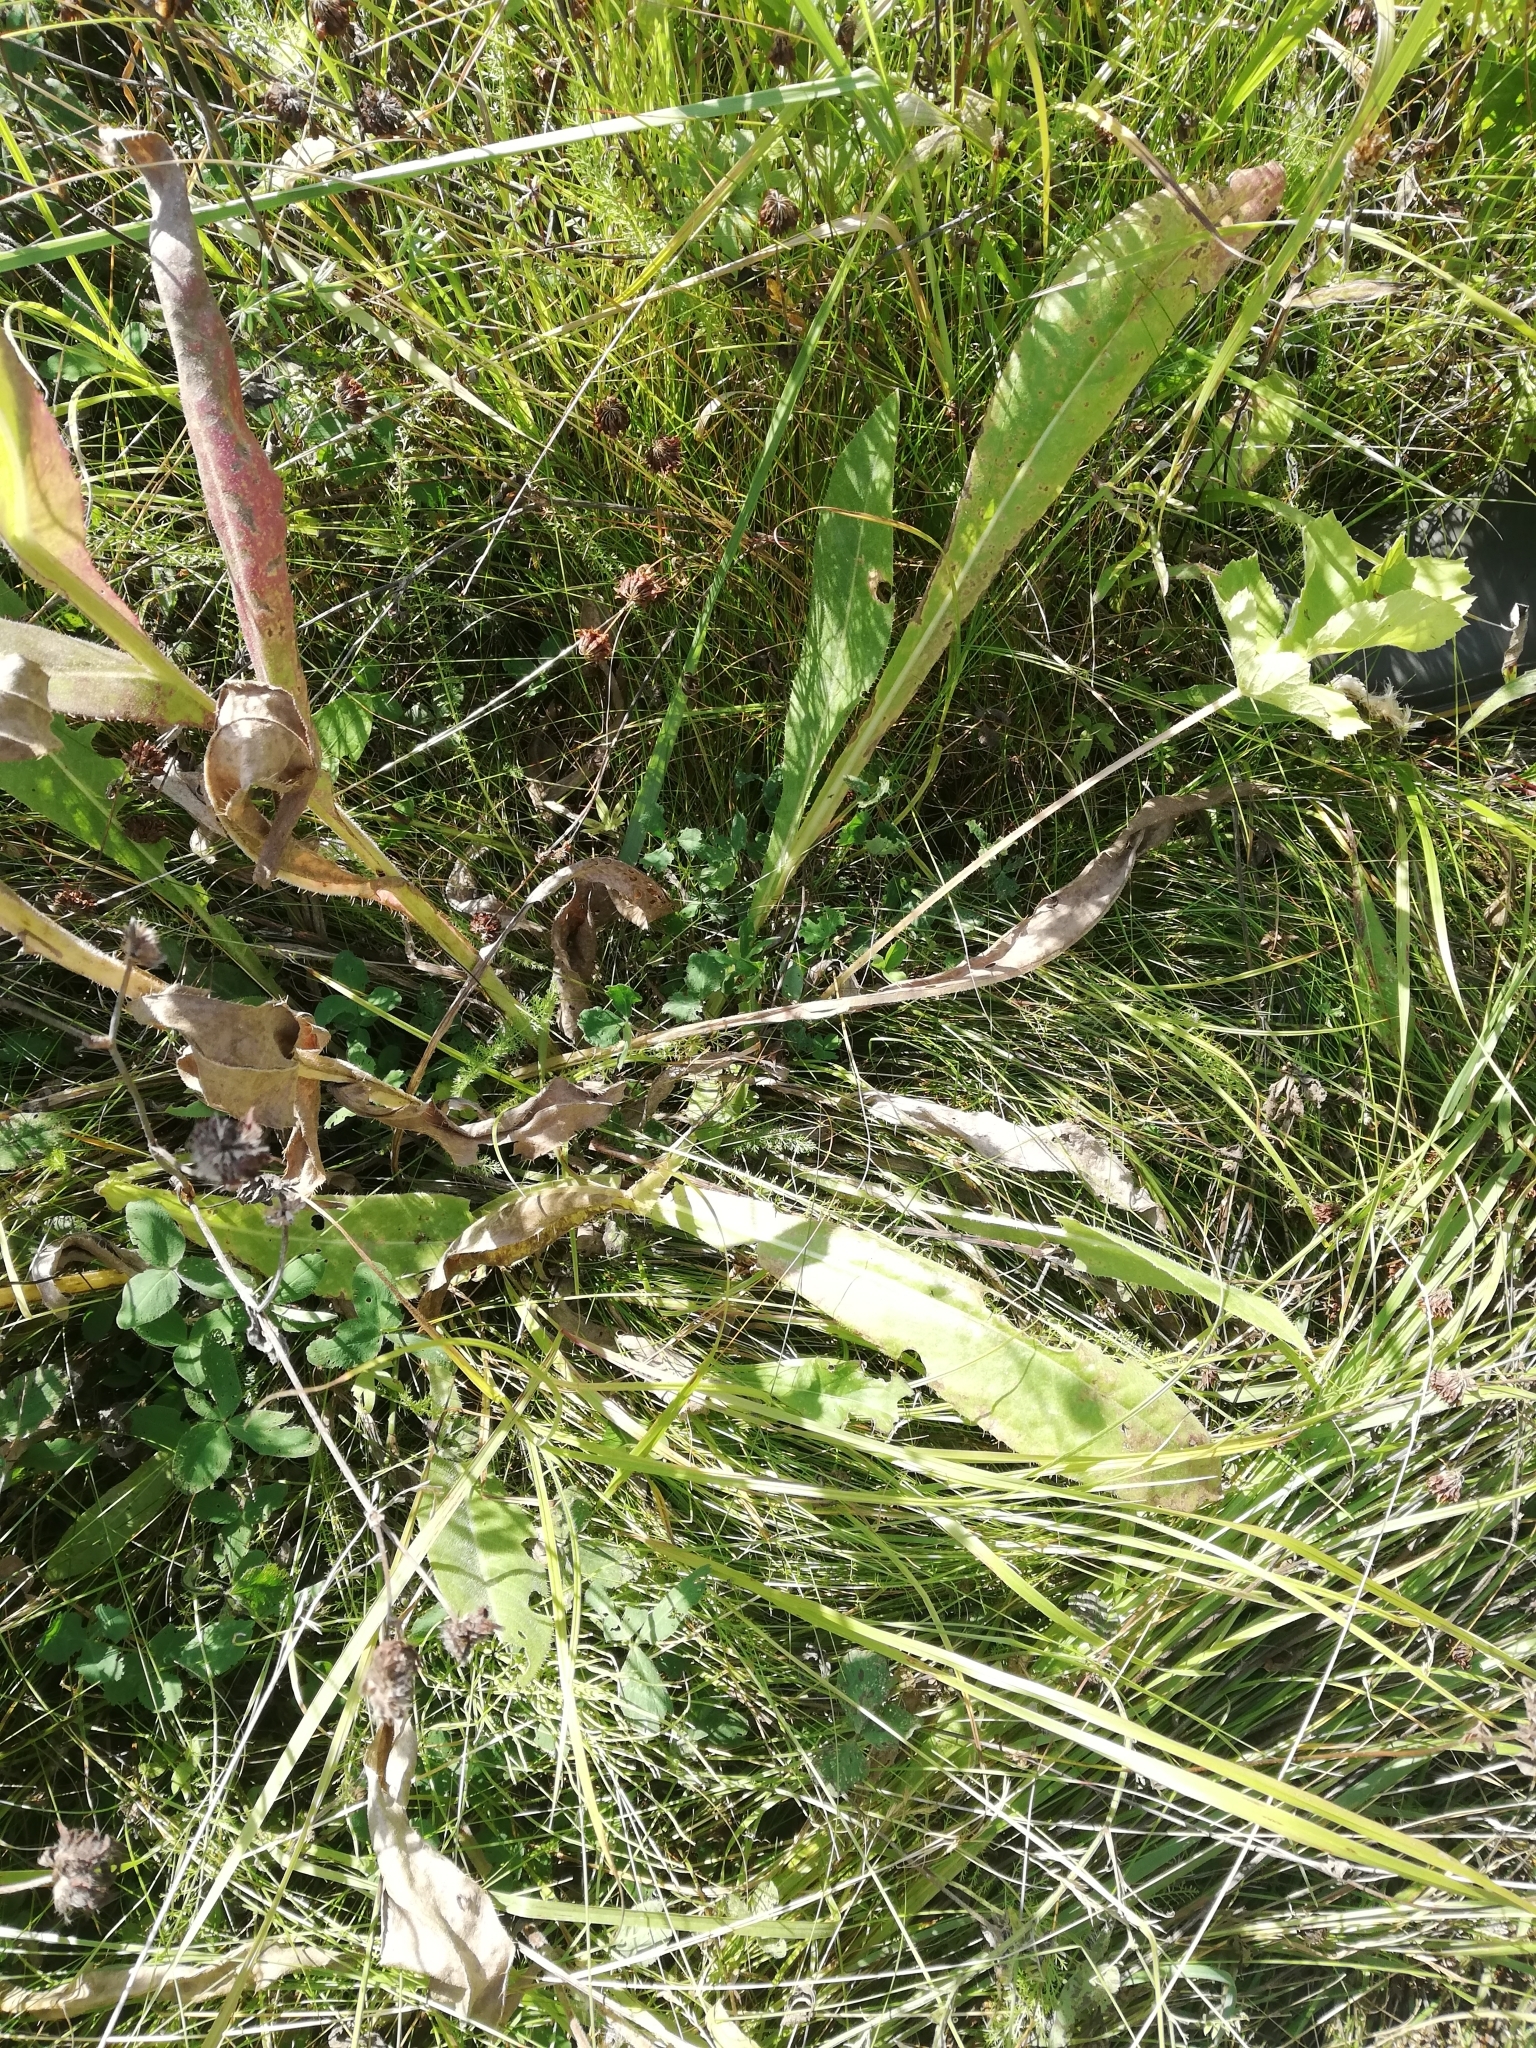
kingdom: Plantae
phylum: Tracheophyta
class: Magnoliopsida
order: Asterales
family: Asteraceae
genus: Cirsium
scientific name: Cirsium canum
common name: Queen anne's thistle
